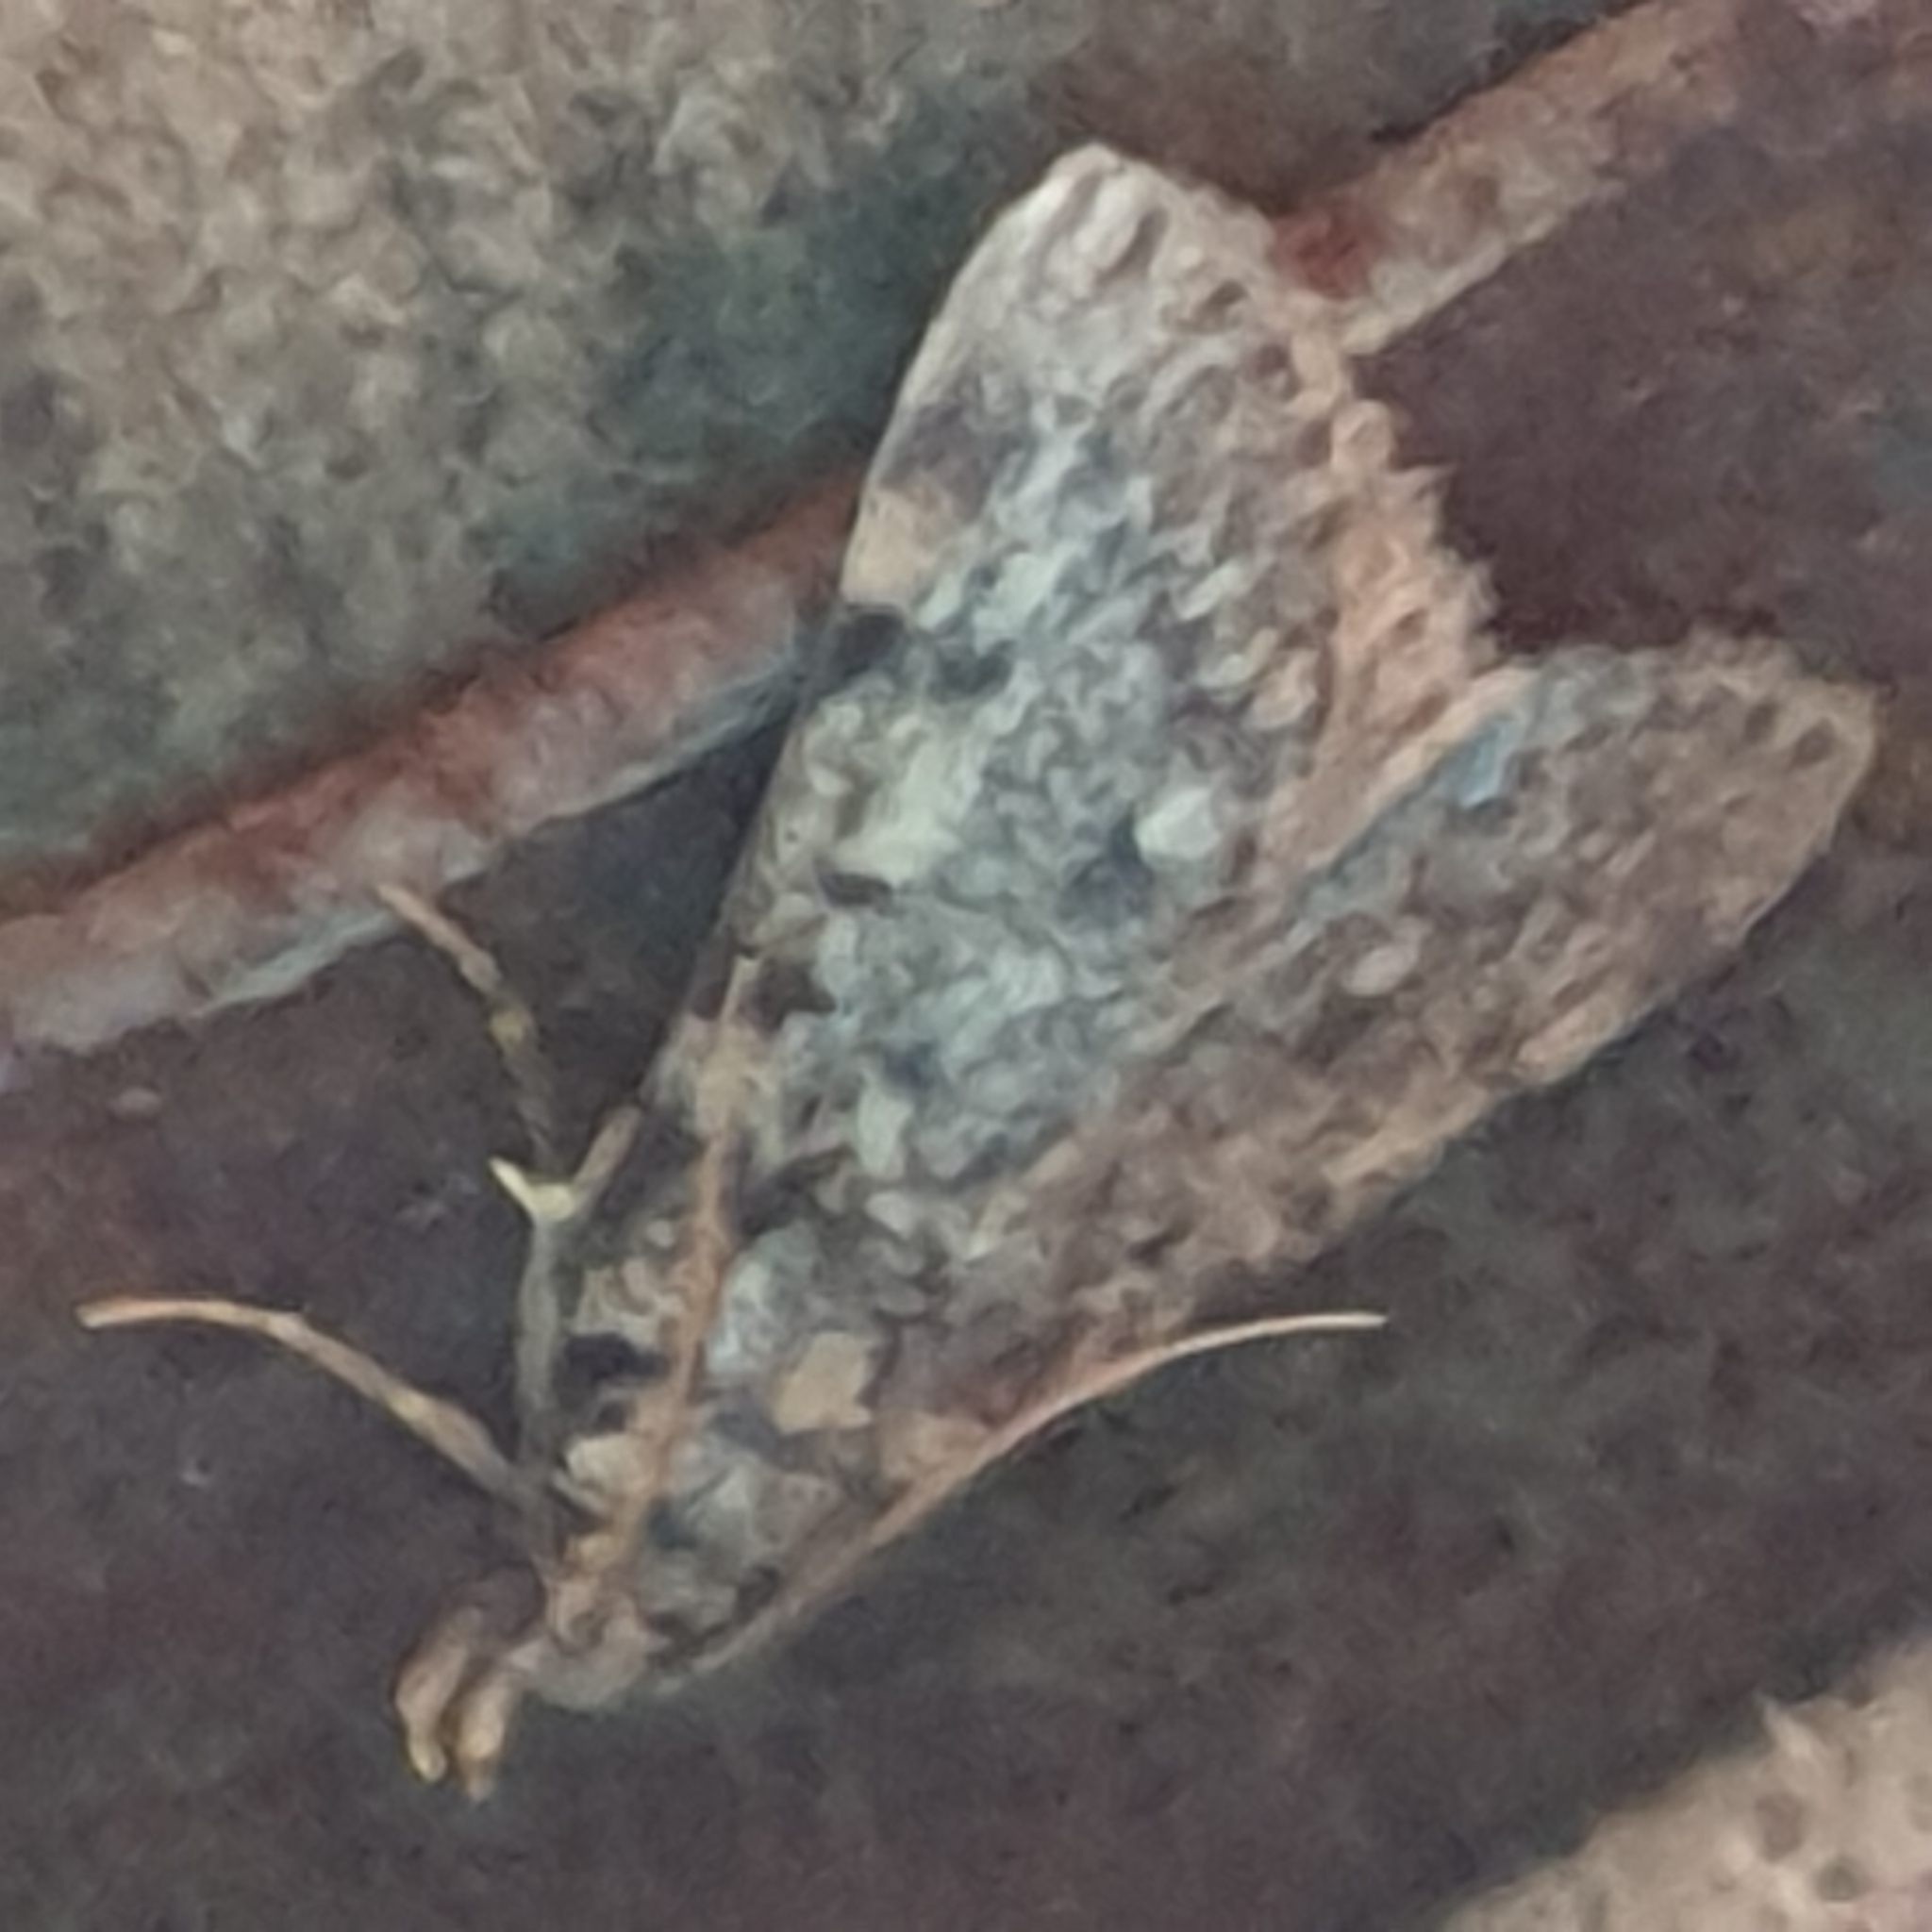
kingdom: Animalia
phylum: Arthropoda
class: Insecta
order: Lepidoptera
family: Pyralidae
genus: Aglossa
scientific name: Aglossa pinguinalis
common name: Large tabby
